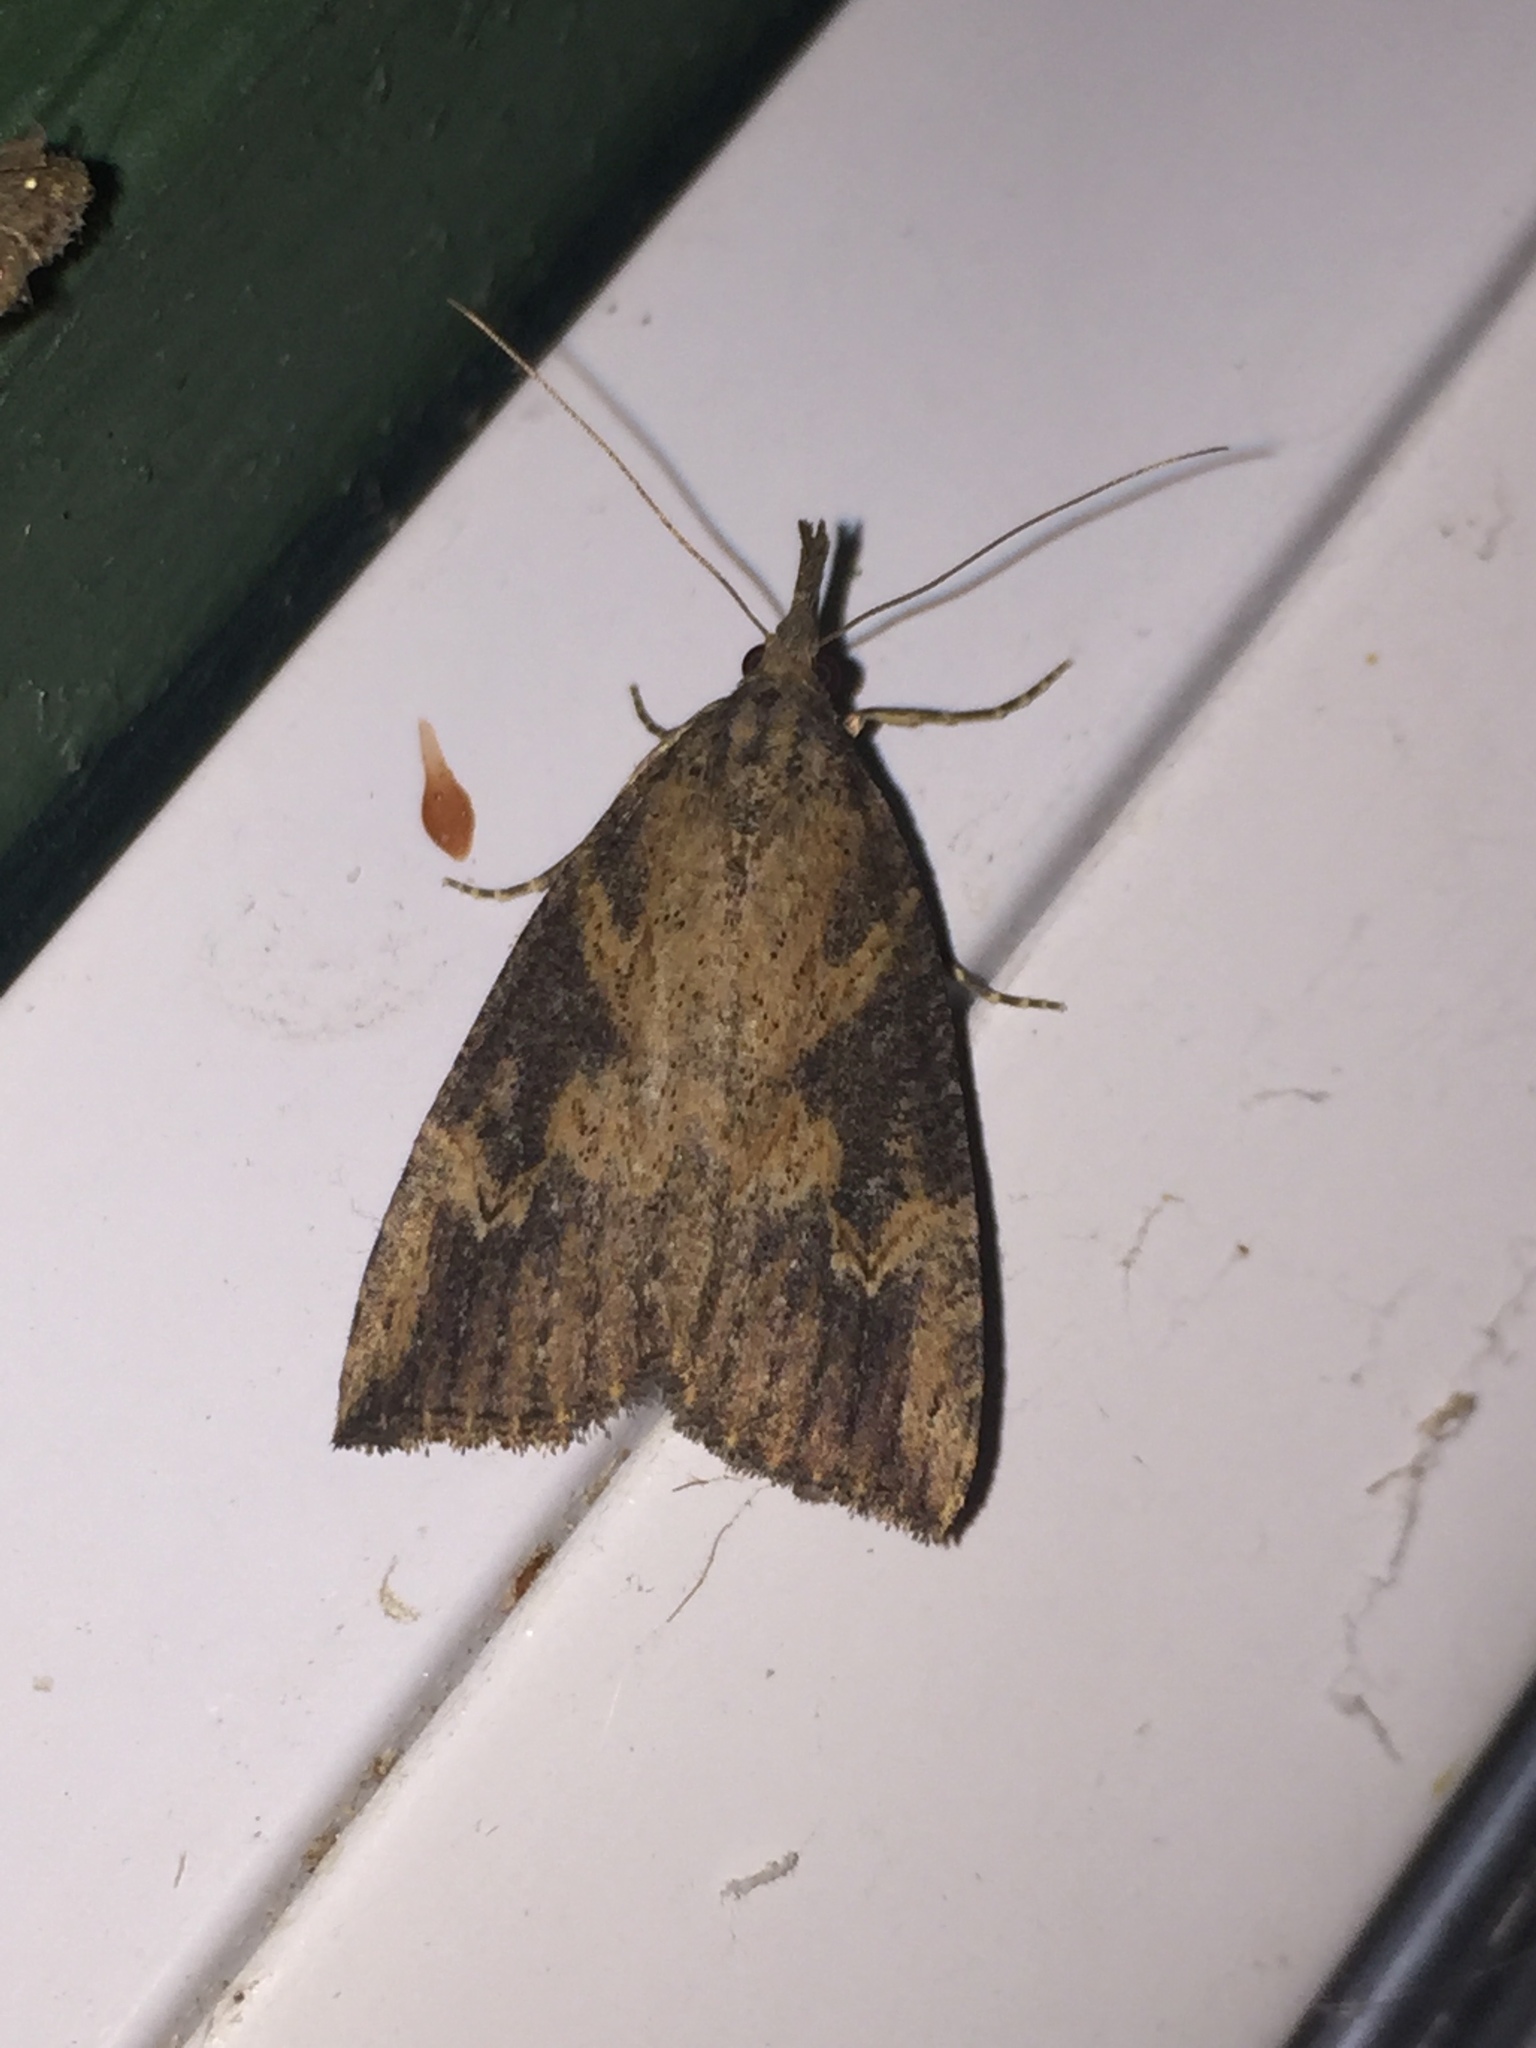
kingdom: Animalia
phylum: Arthropoda
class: Insecta
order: Lepidoptera
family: Erebidae
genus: Hypena
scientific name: Hypena humuli
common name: Hop vine snout
